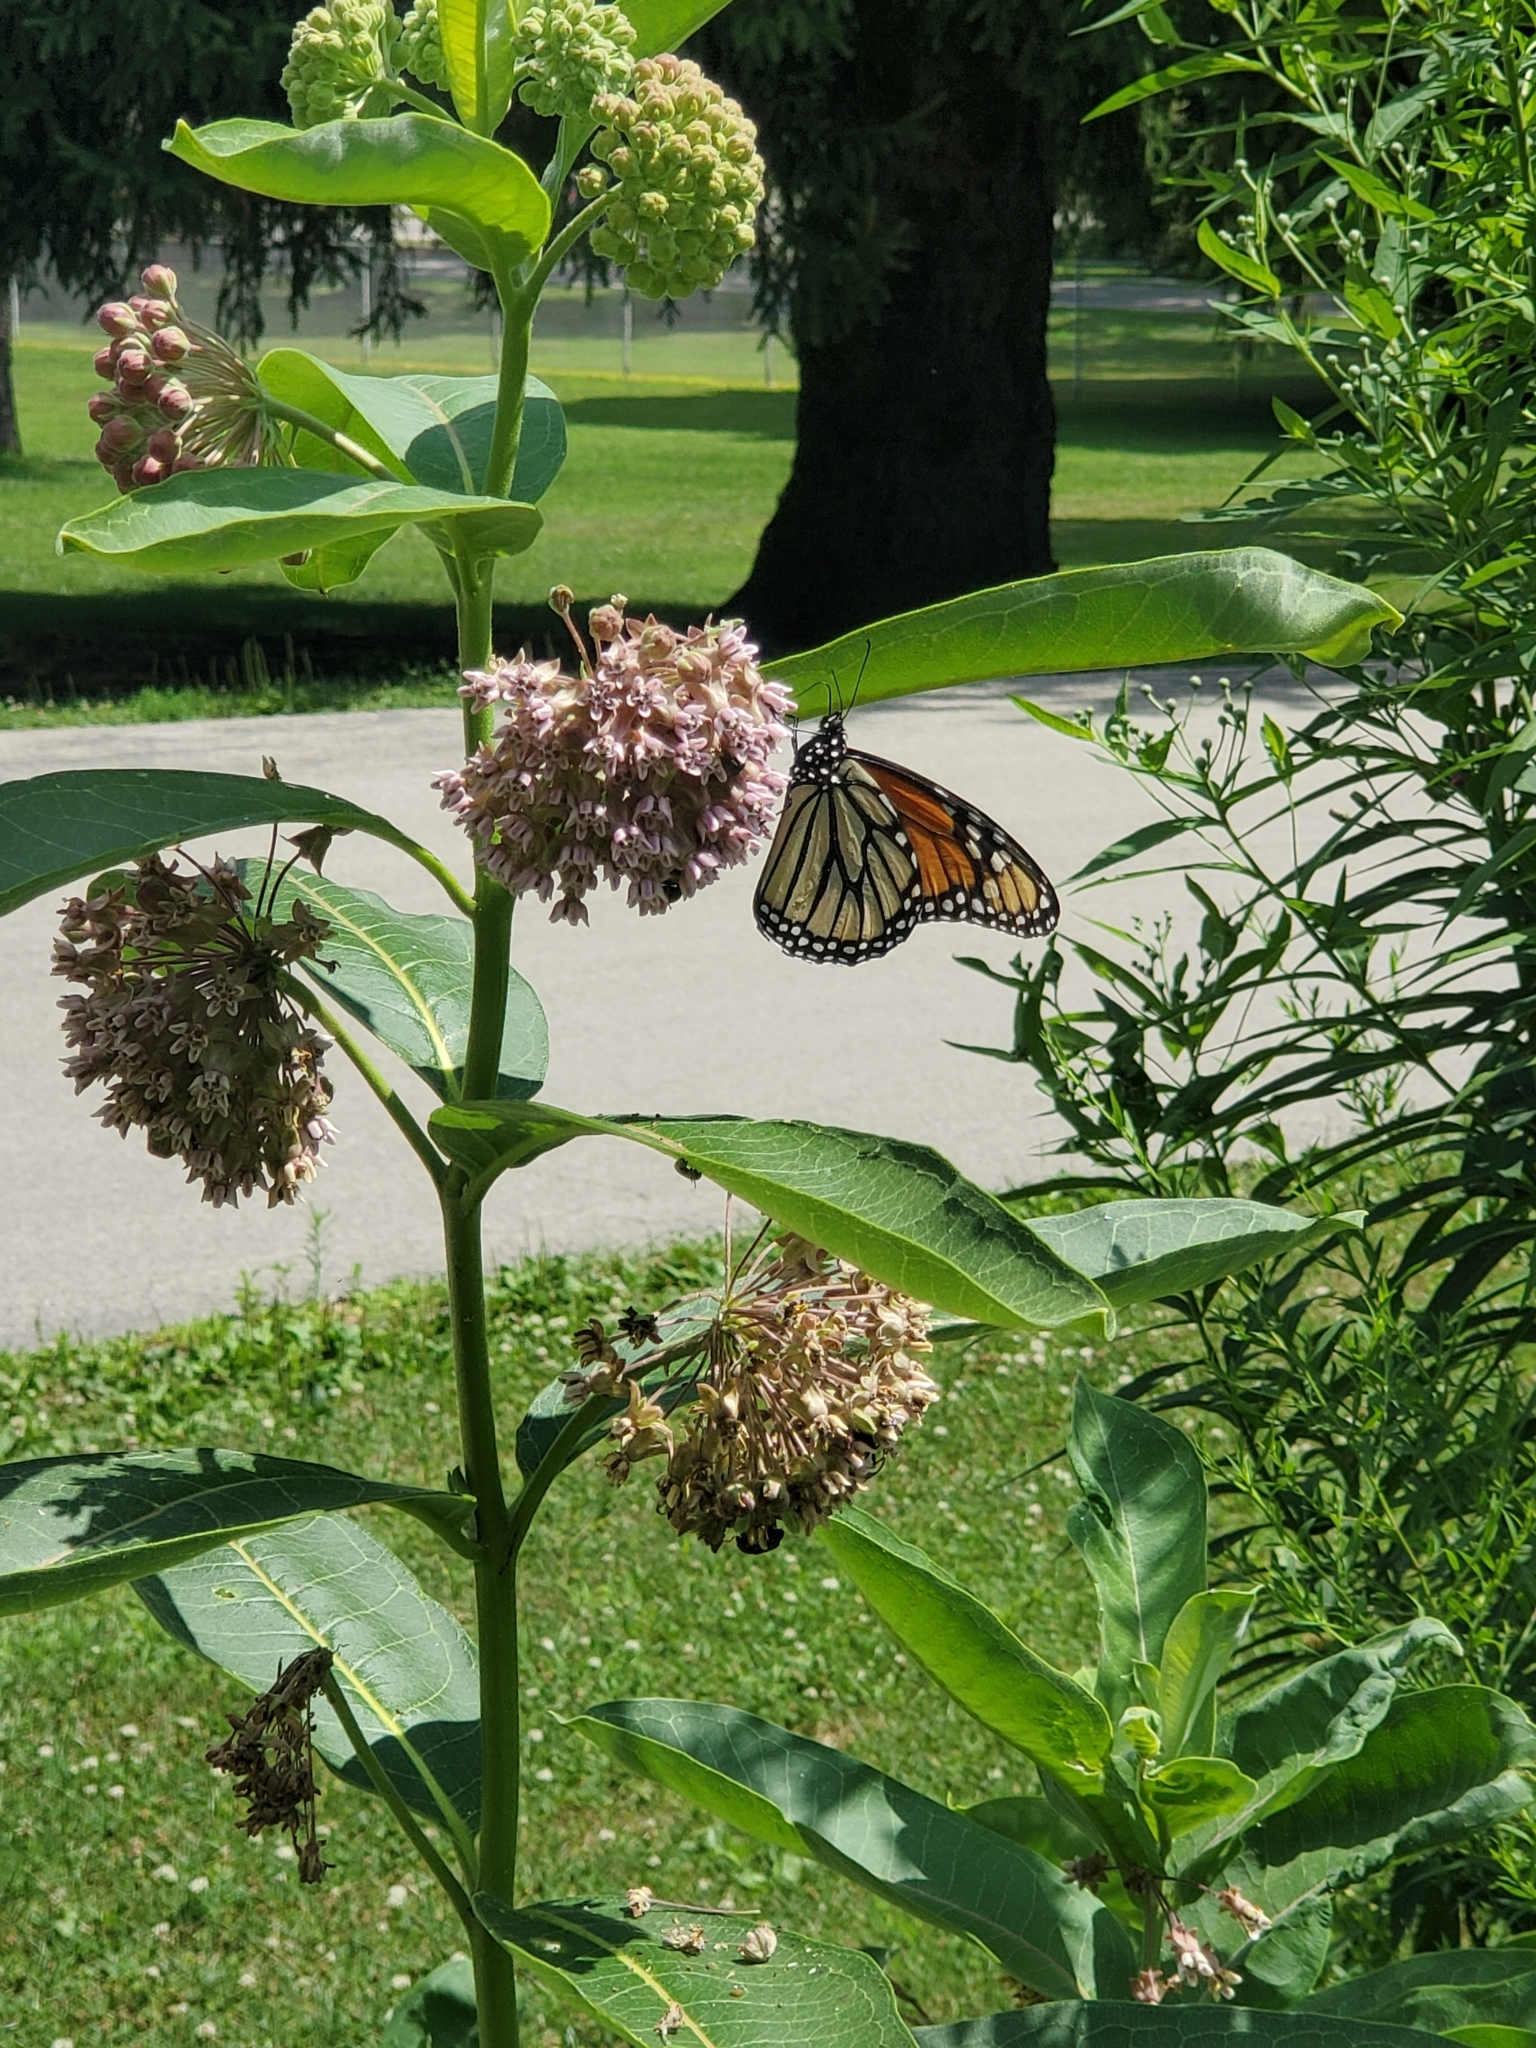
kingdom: Animalia
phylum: Arthropoda
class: Insecta
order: Lepidoptera
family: Nymphalidae
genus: Danaus
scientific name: Danaus plexippus
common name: Monarch
